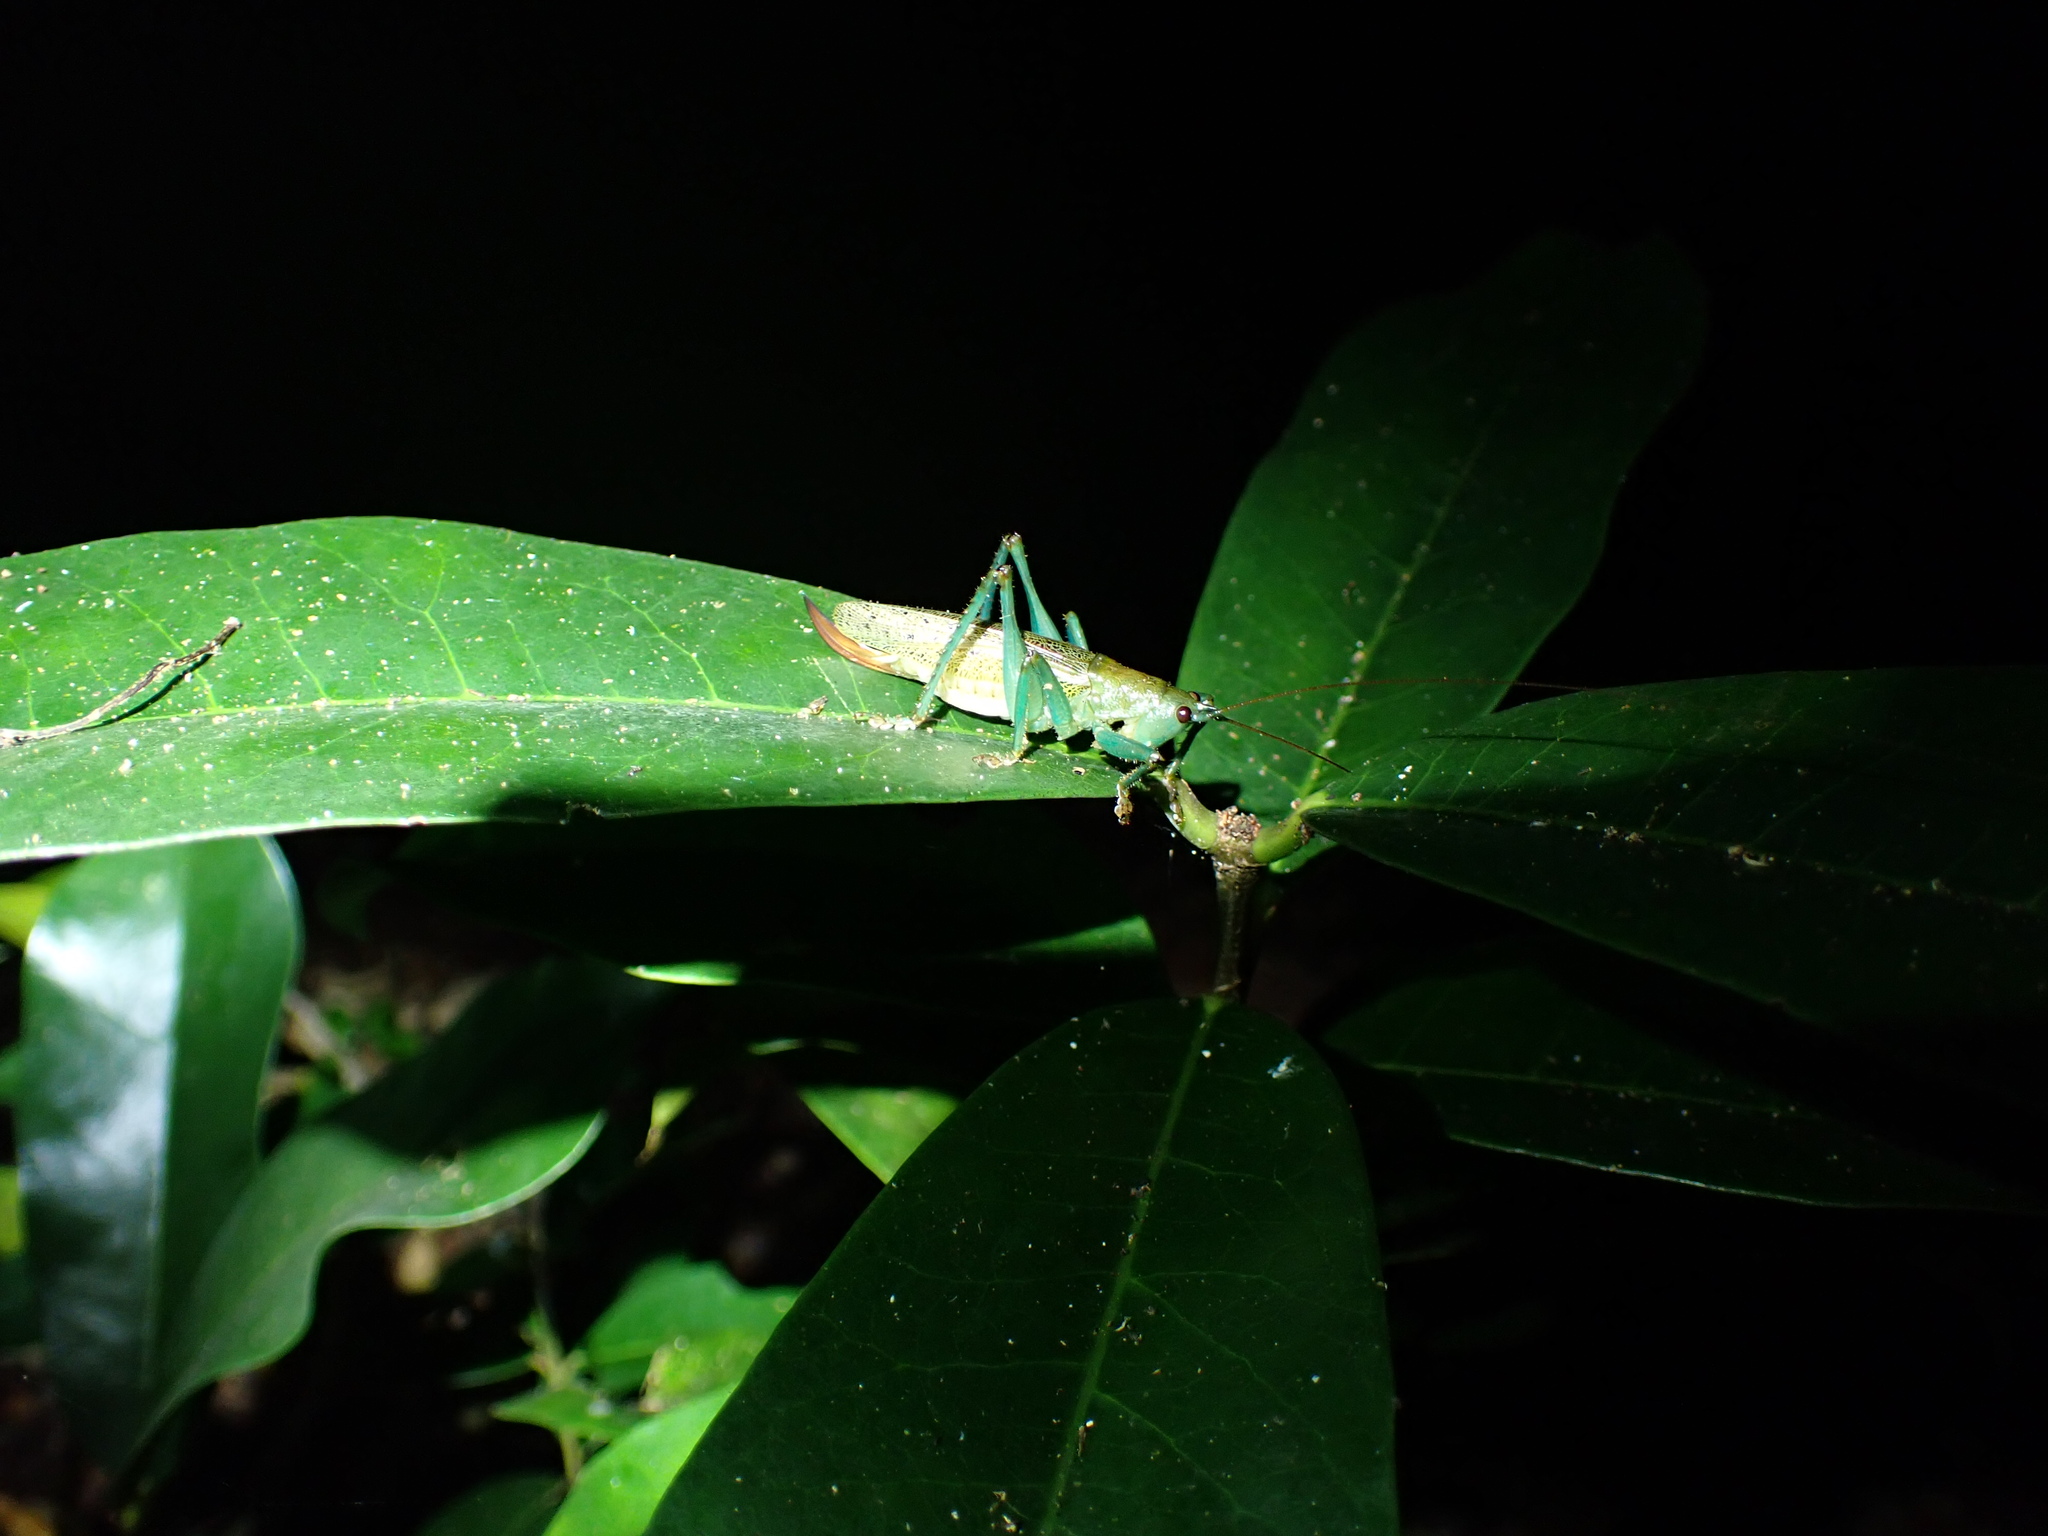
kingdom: Animalia
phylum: Arthropoda
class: Insecta
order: Orthoptera
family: Tettigoniidae
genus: Barbaragraecia
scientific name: Barbaragraecia unicorn
